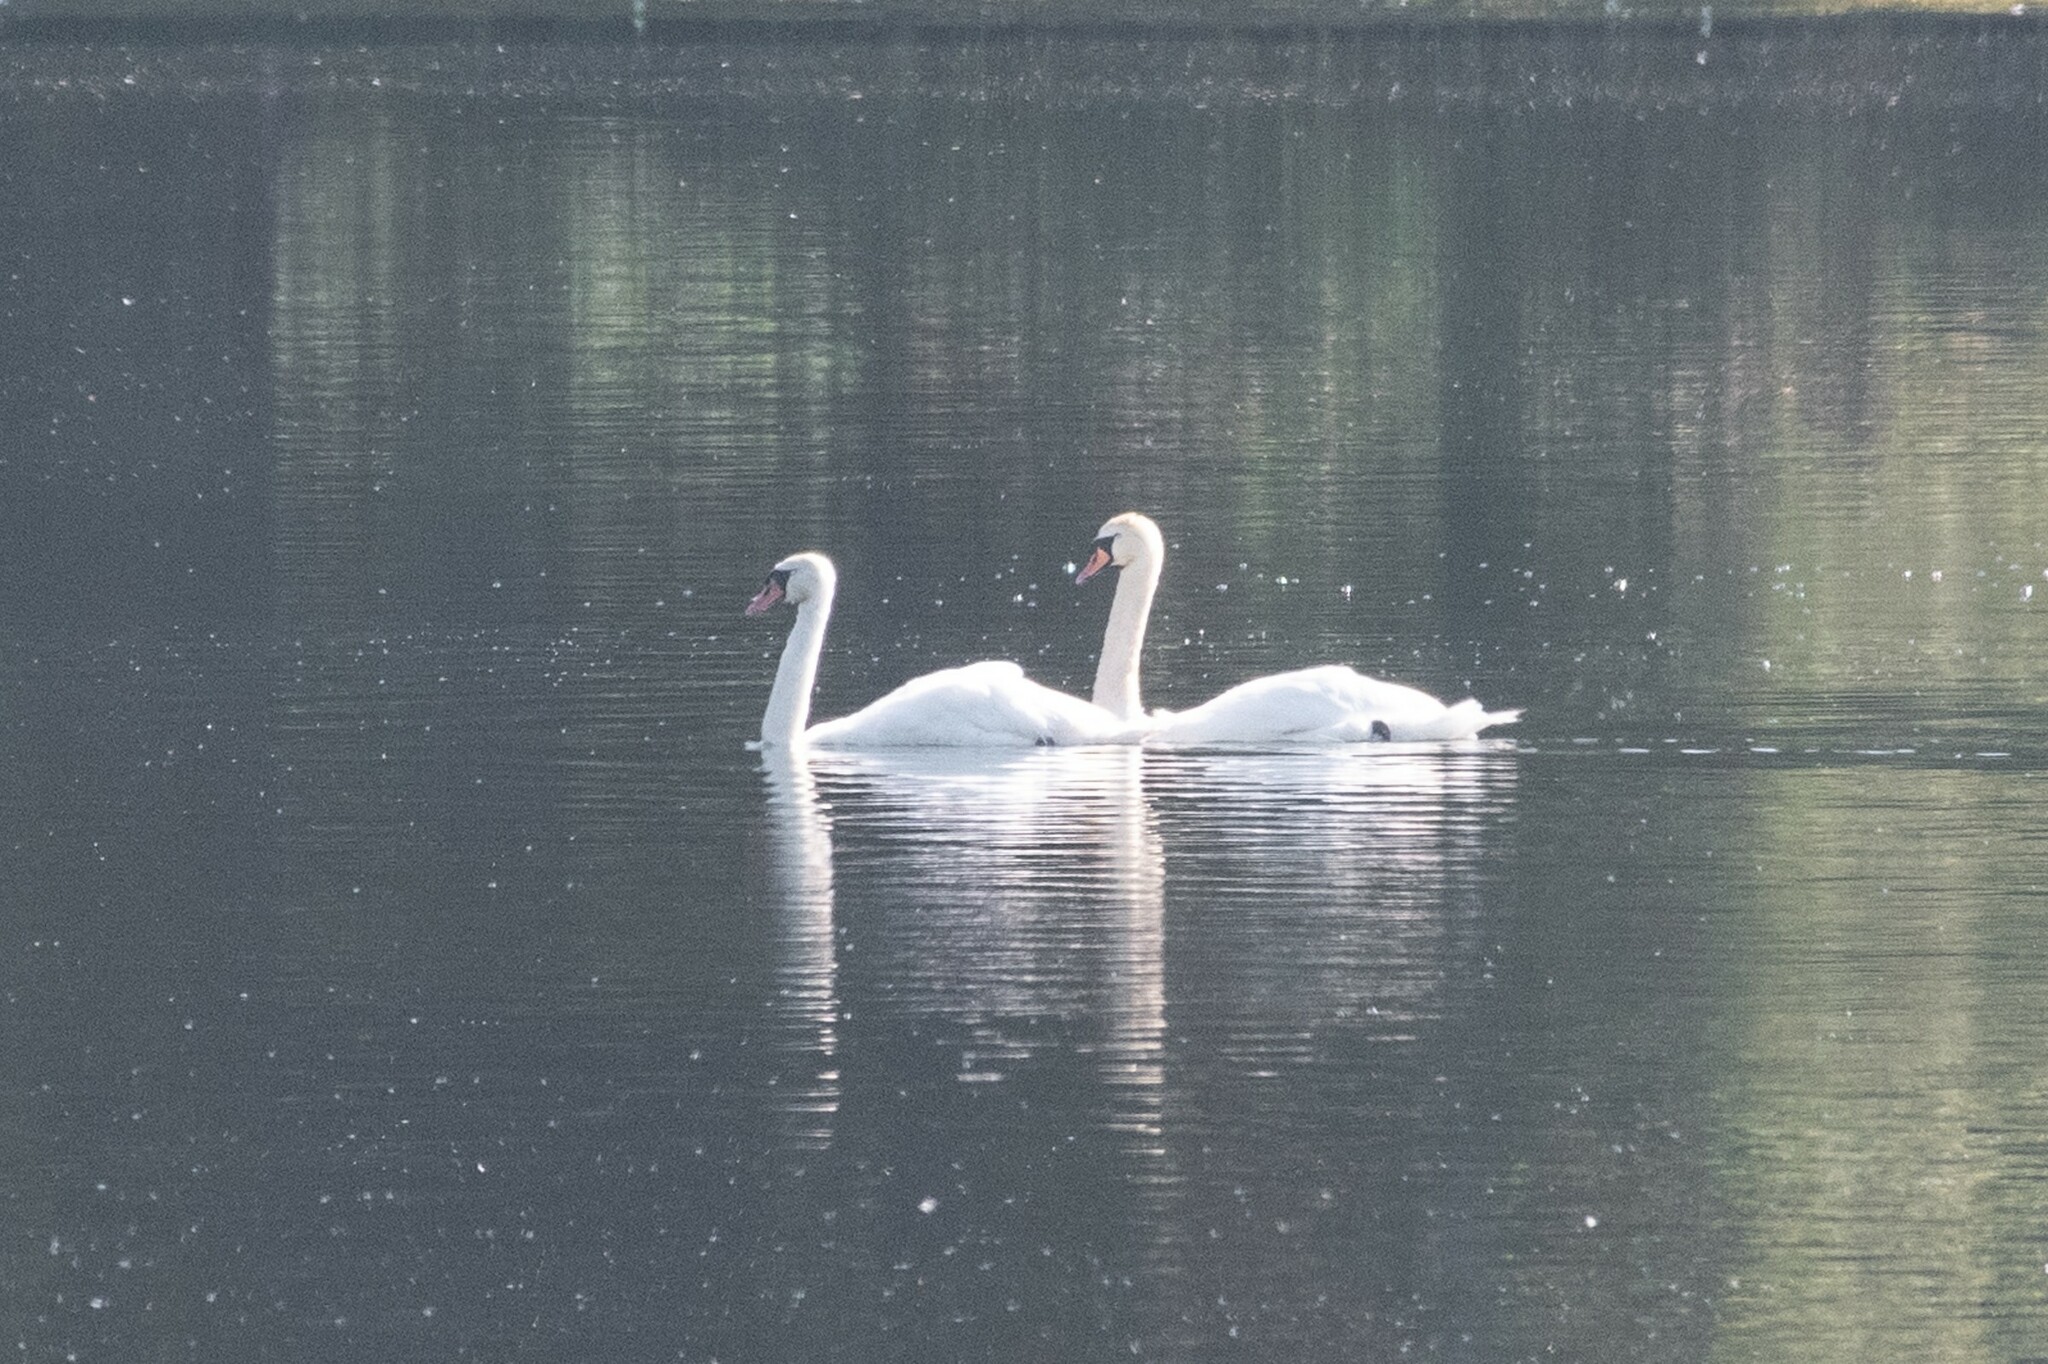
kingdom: Animalia
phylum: Chordata
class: Aves
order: Anseriformes
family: Anatidae
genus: Cygnus
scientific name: Cygnus olor
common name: Mute swan
